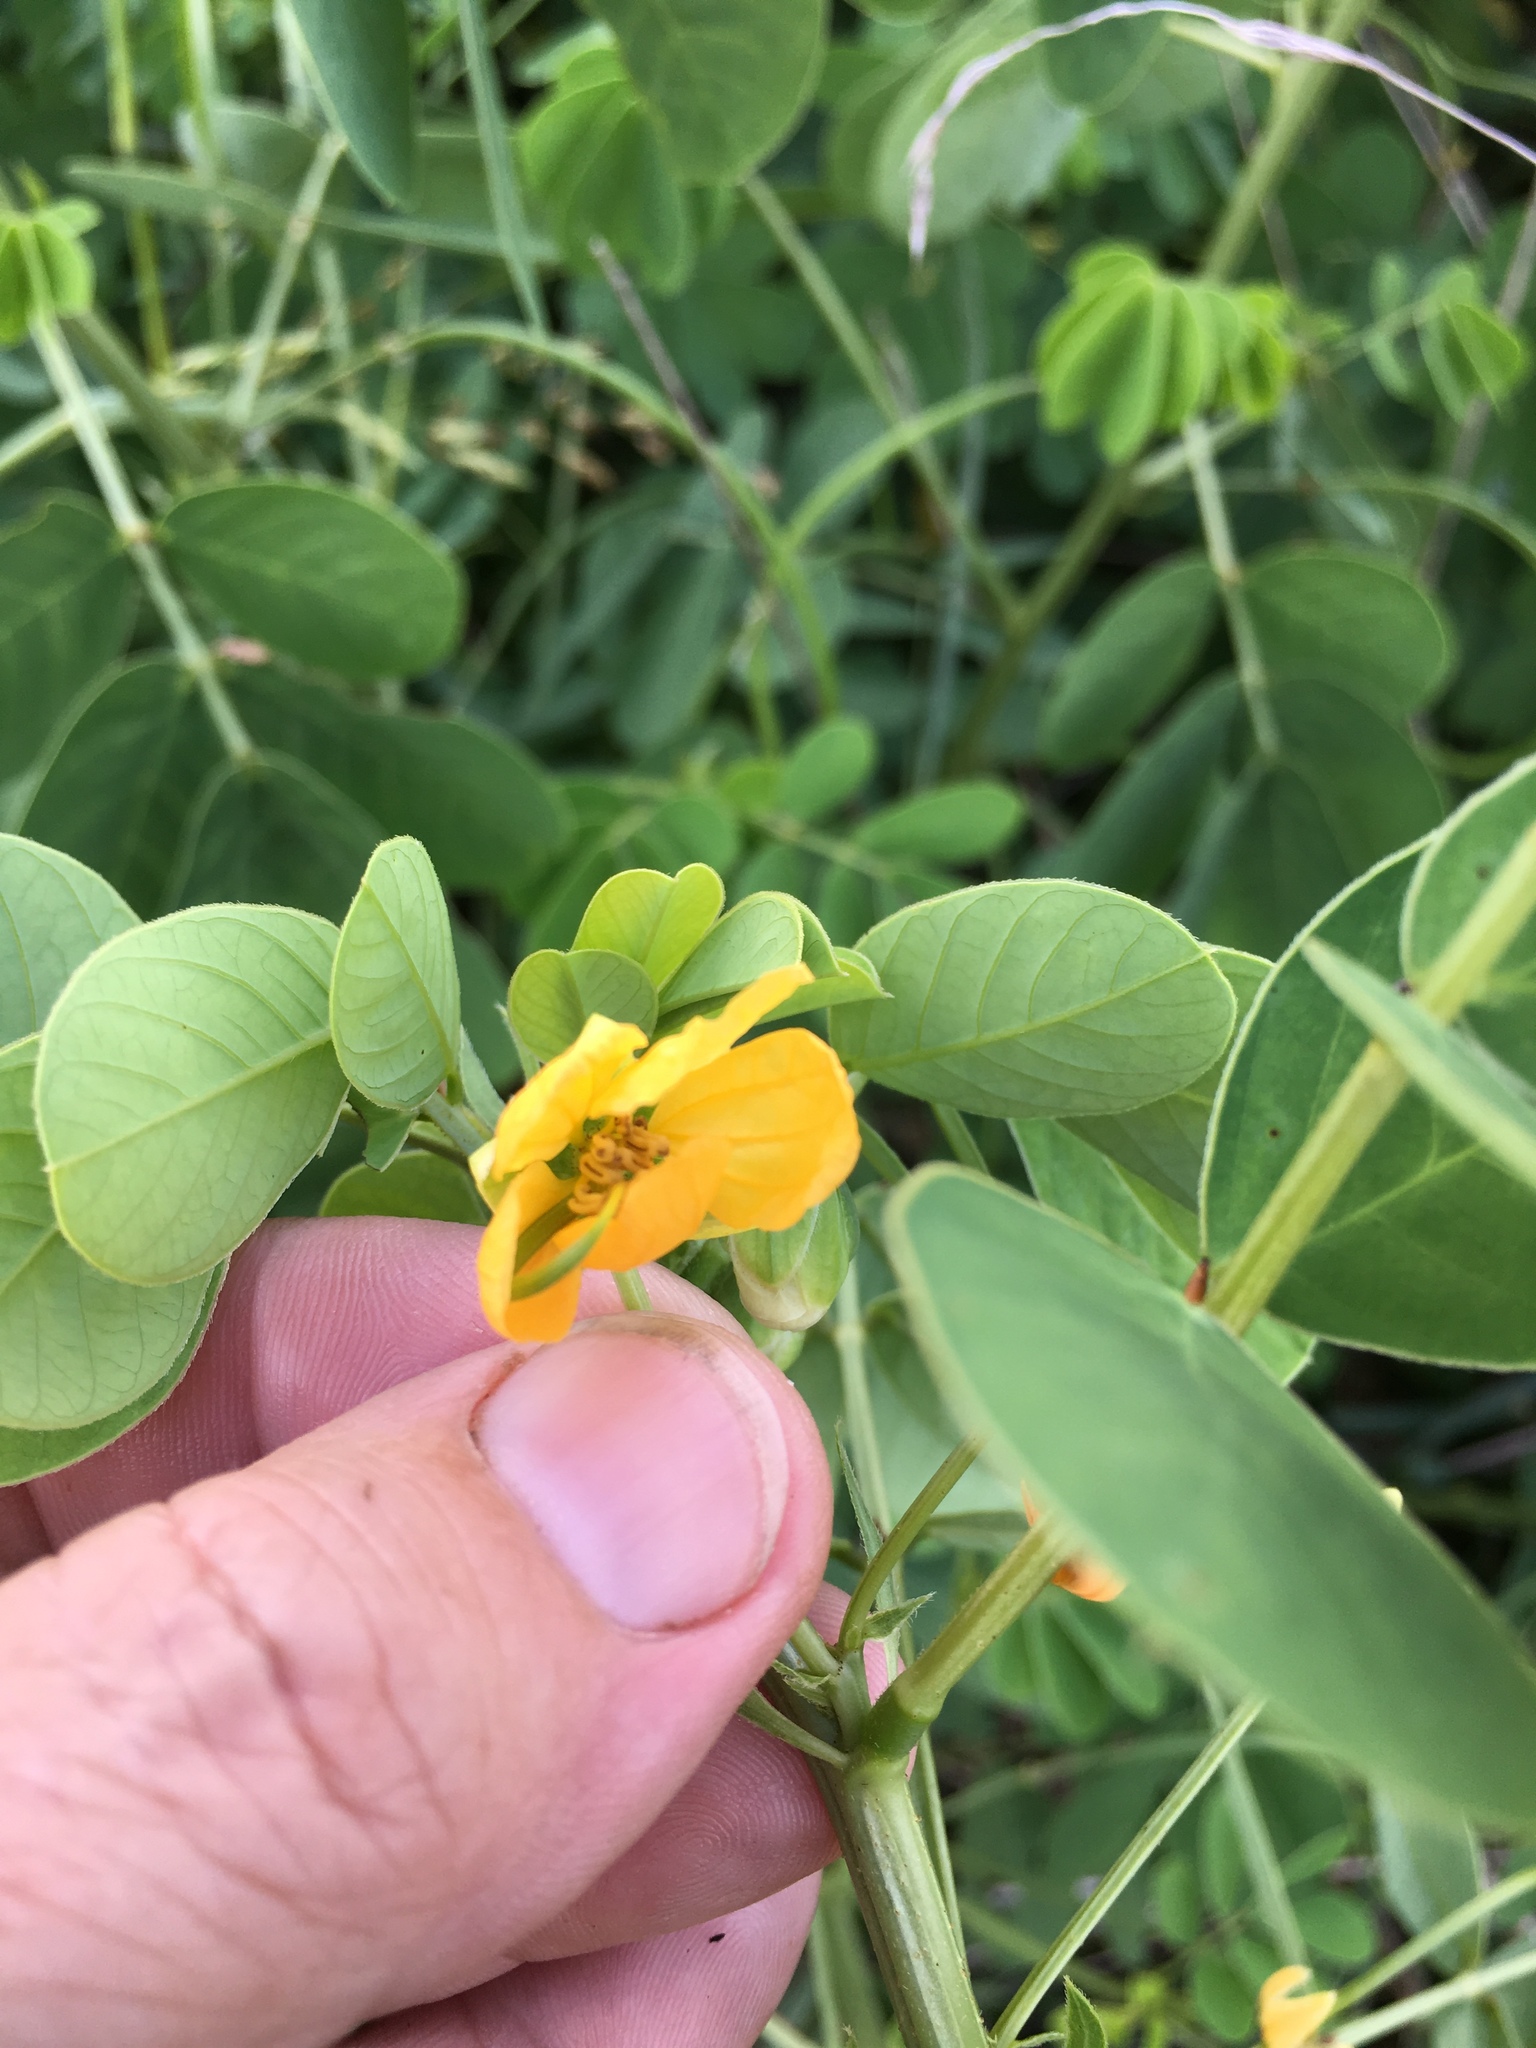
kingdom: Plantae
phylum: Tracheophyta
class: Magnoliopsida
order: Fabales
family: Fabaceae
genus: Senna
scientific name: Senna obtusifolia
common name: Java-bean
